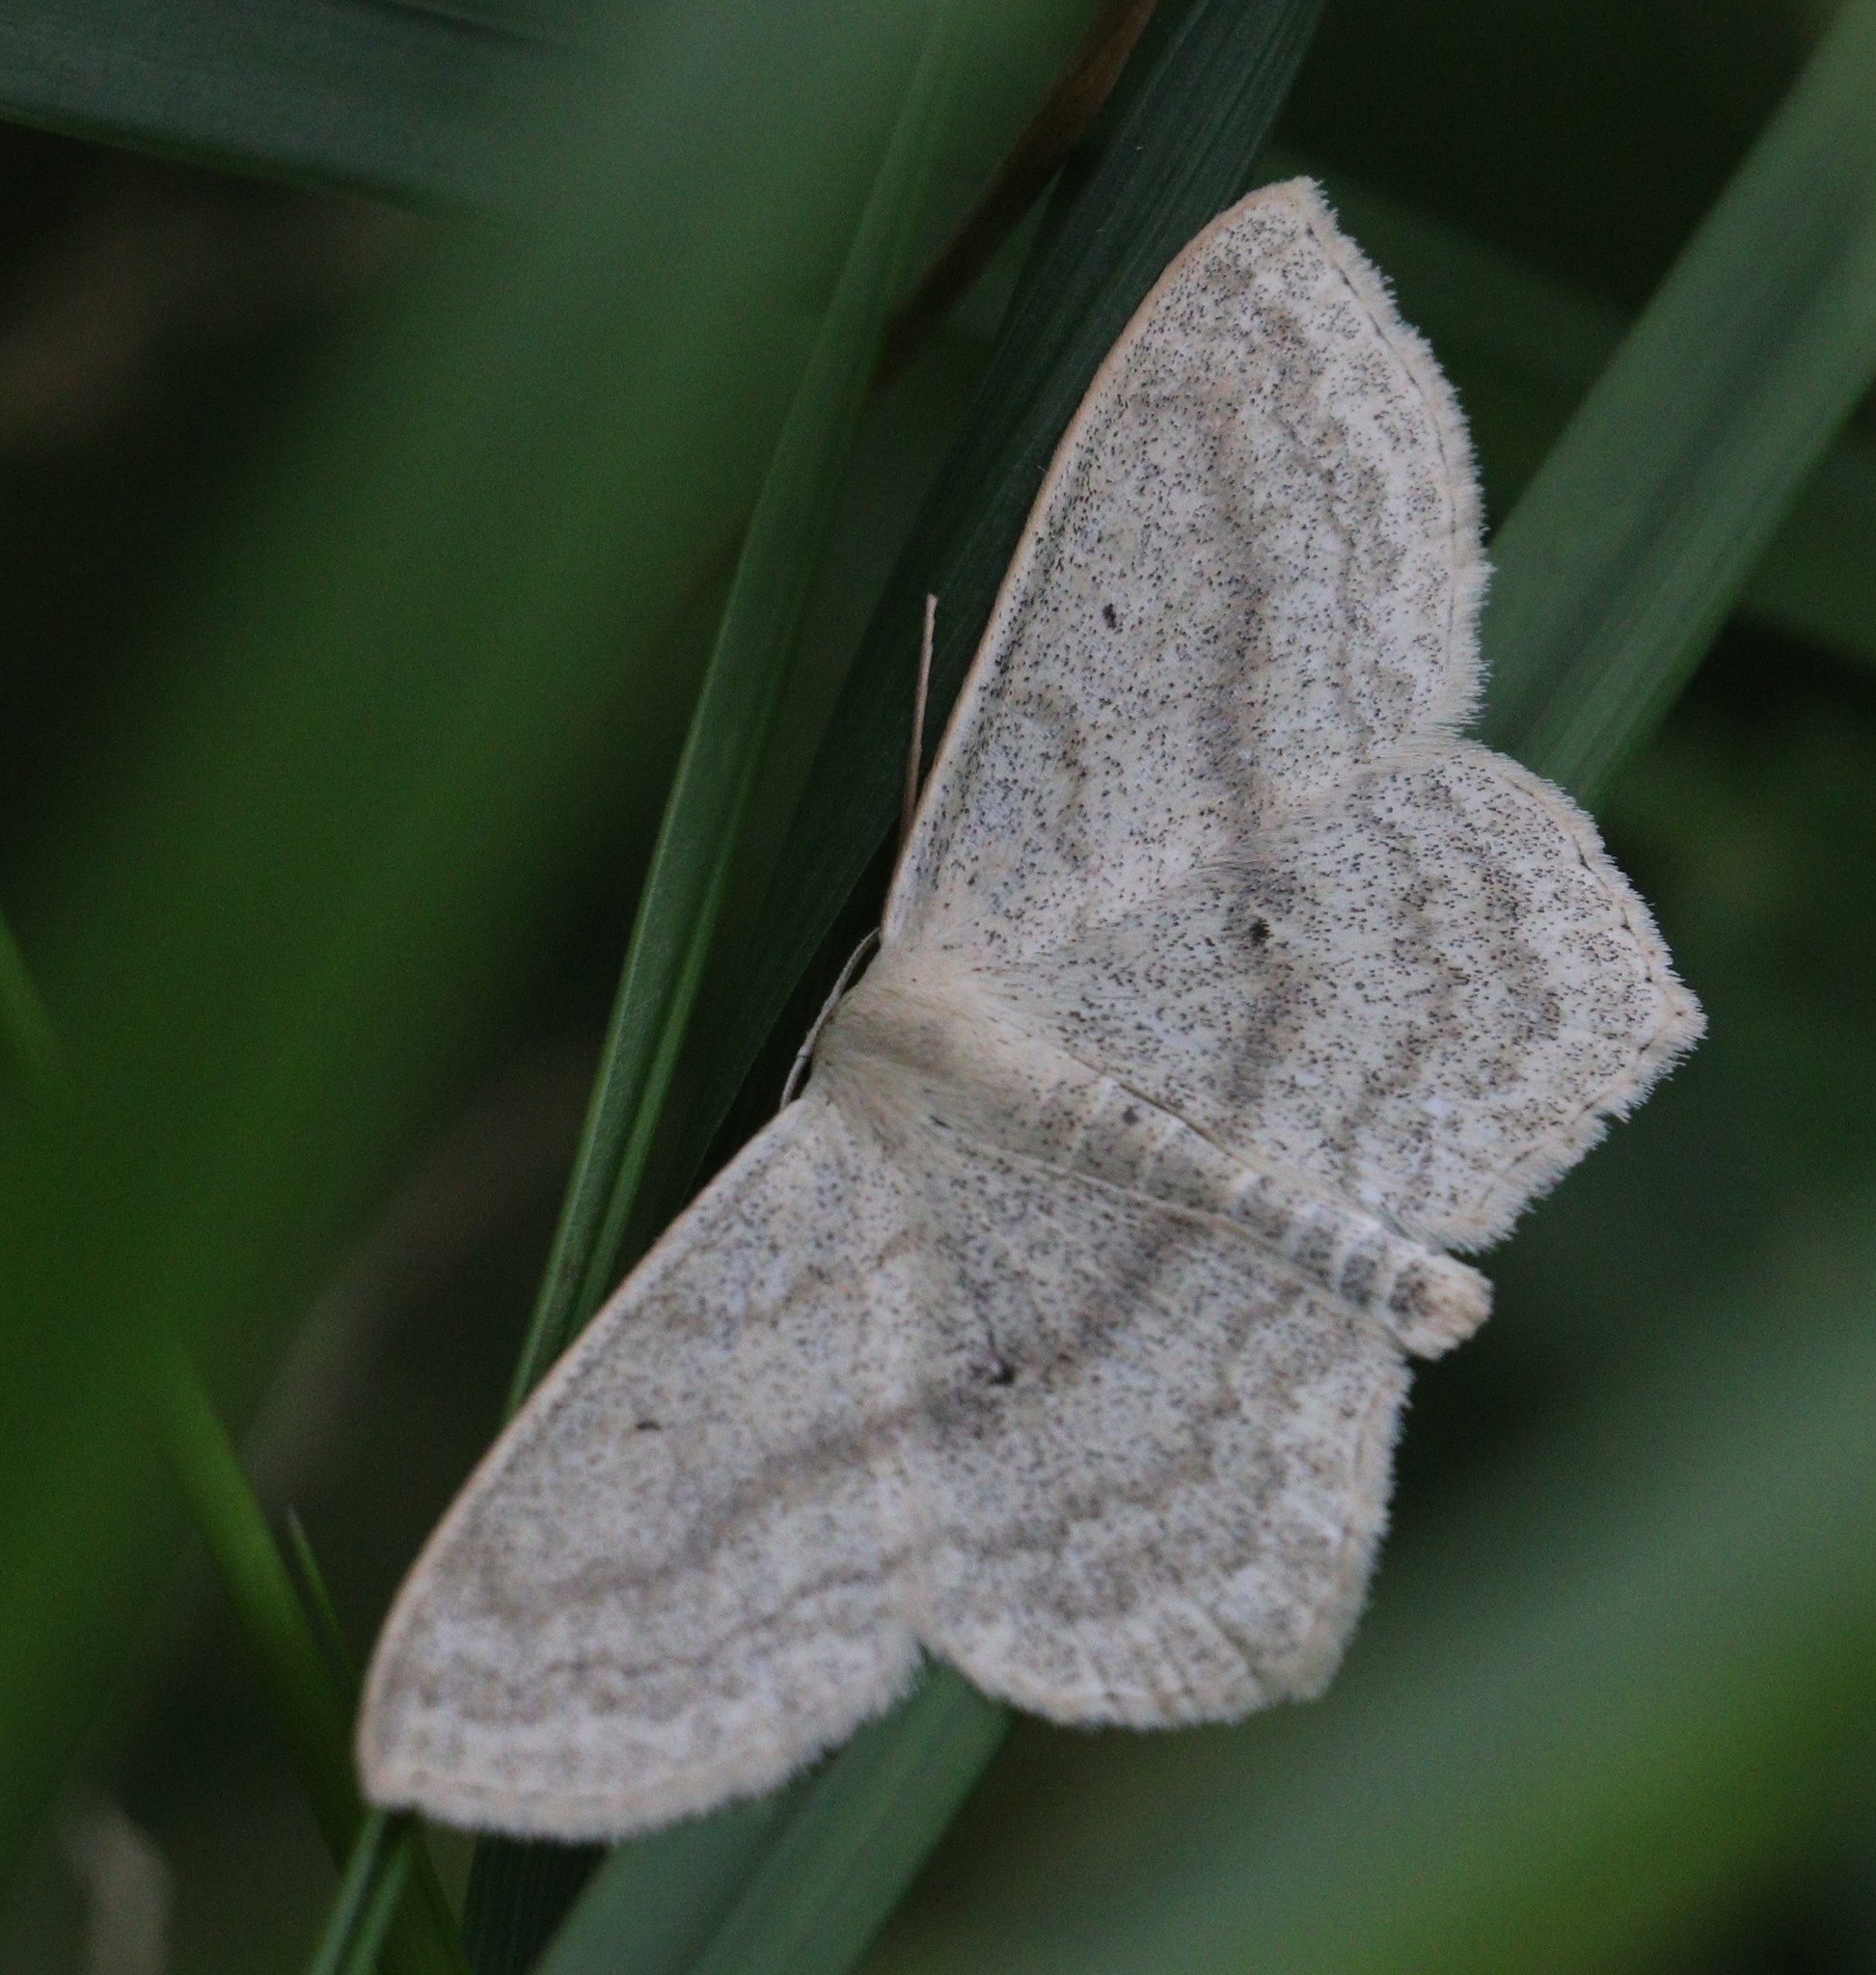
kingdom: Animalia
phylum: Arthropoda
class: Insecta
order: Lepidoptera
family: Geometridae
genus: Scopula
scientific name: Scopula nigropunctata
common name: Sub-angled wave
